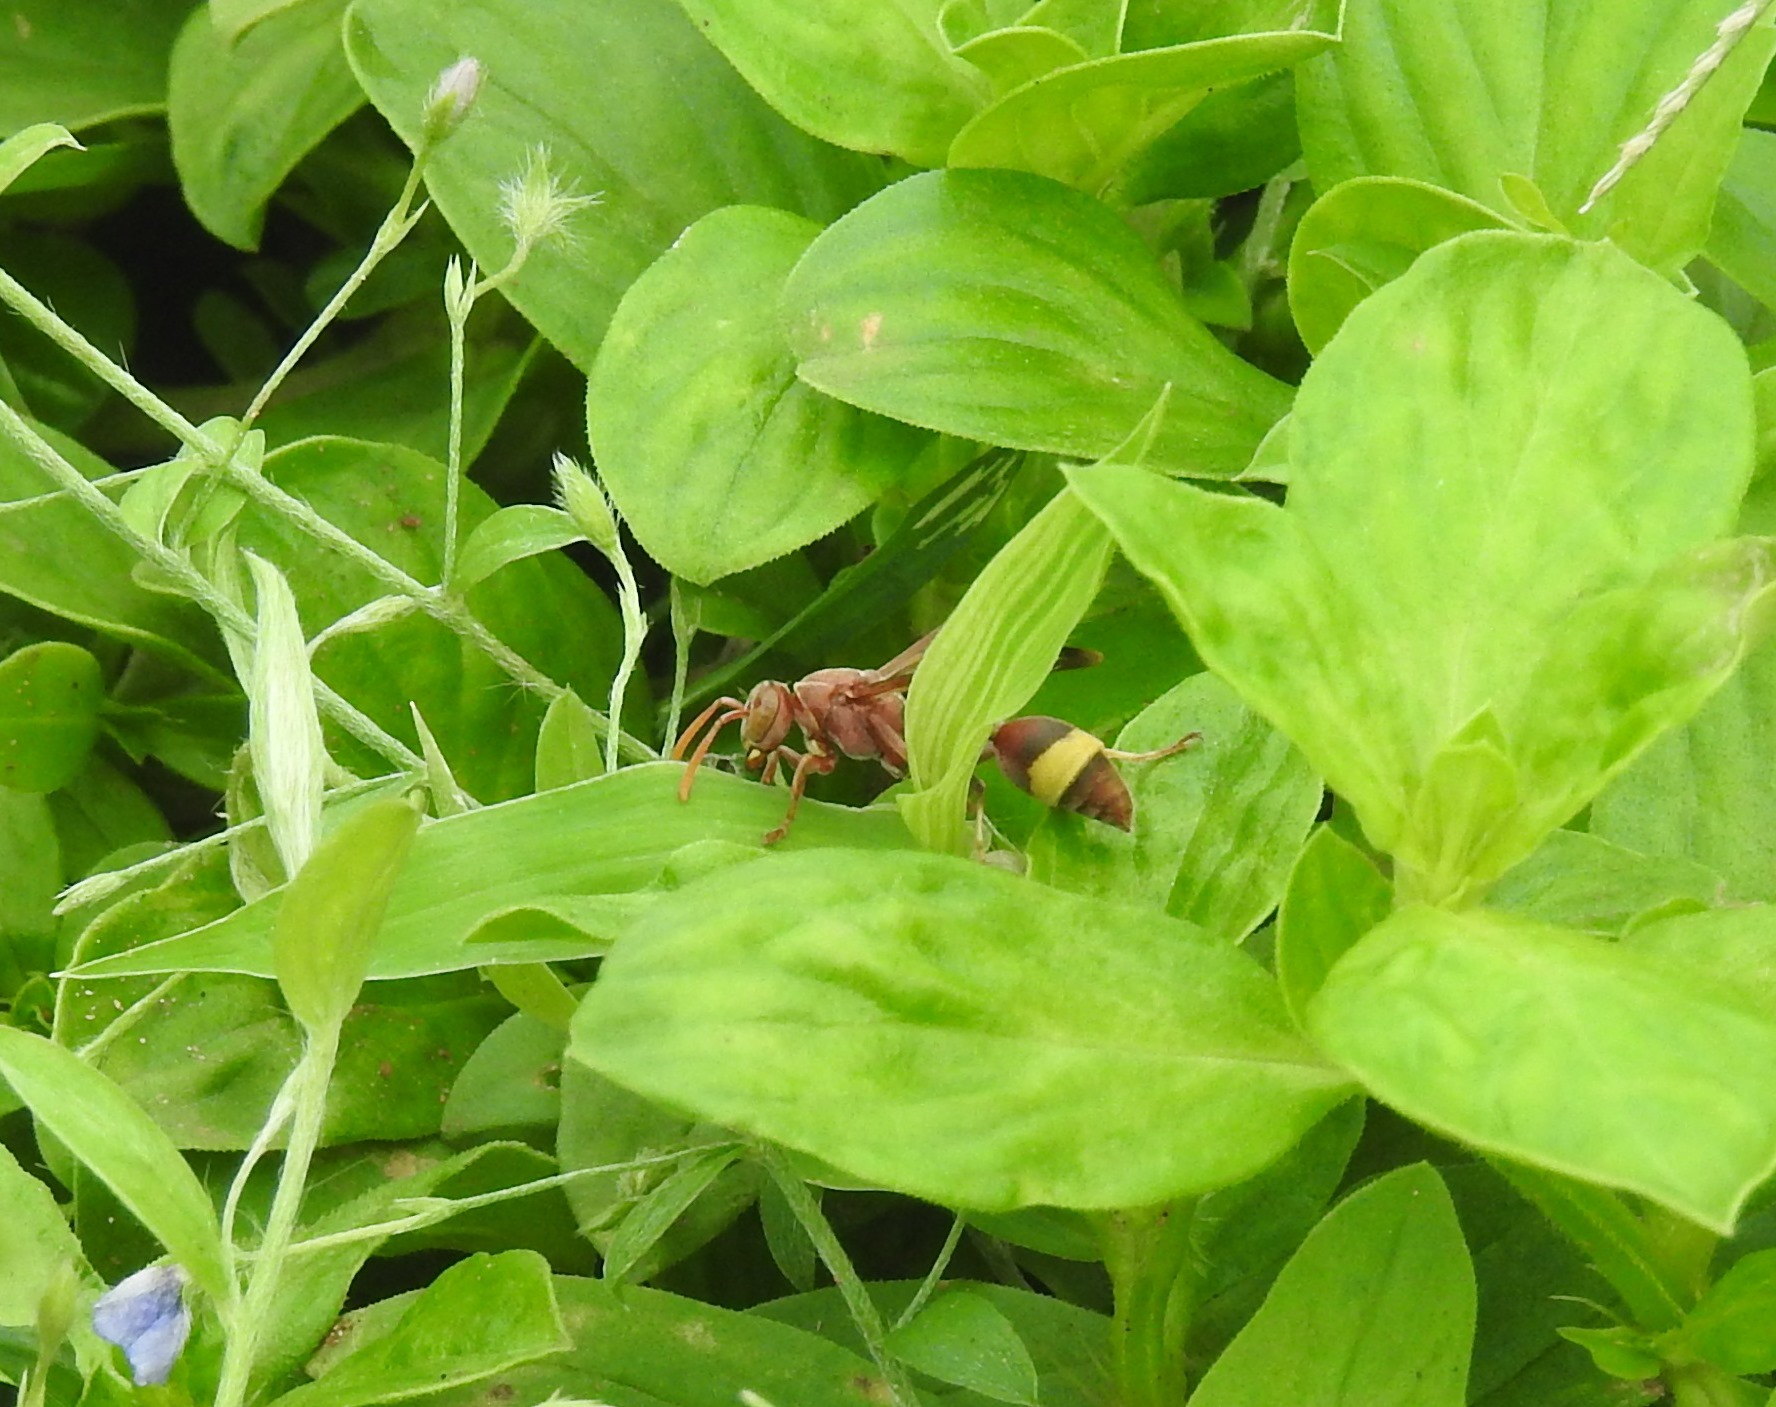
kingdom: Animalia
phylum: Arthropoda
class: Insecta
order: Hymenoptera
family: Vespidae
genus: Ropalidia
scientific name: Ropalidia
